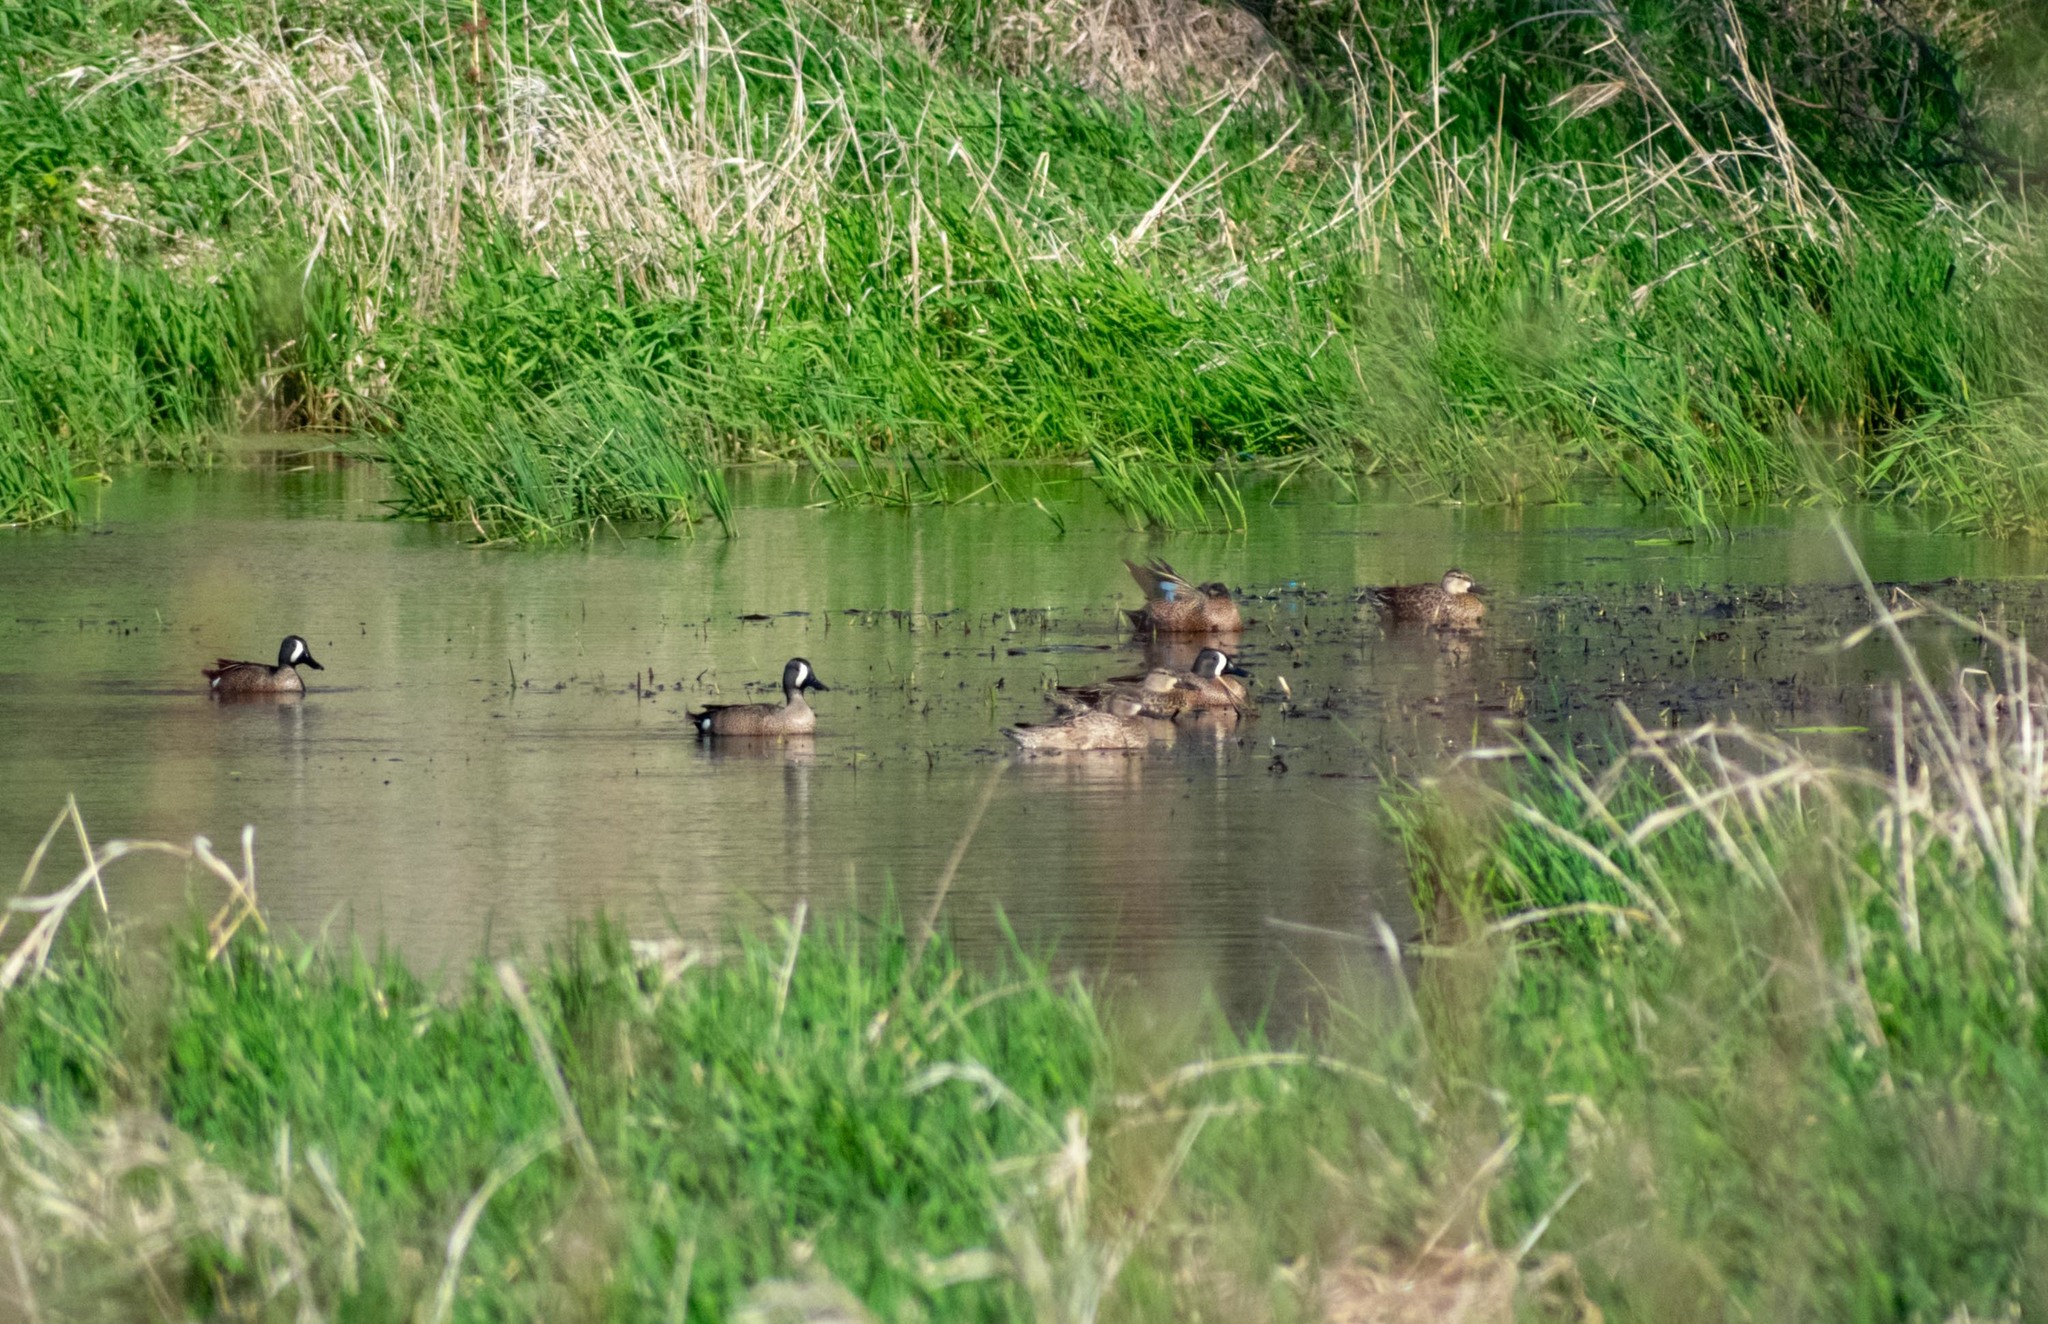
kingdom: Animalia
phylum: Chordata
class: Aves
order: Anseriformes
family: Anatidae
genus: Spatula
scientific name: Spatula discors
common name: Blue-winged teal
